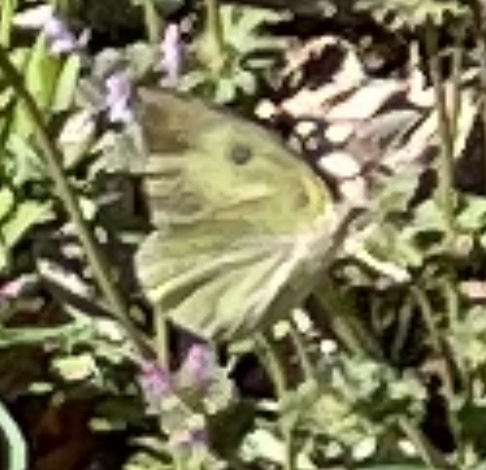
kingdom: Animalia
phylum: Arthropoda
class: Insecta
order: Lepidoptera
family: Pieridae
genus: Zerene
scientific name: Zerene cesonia
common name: Southern dogface
